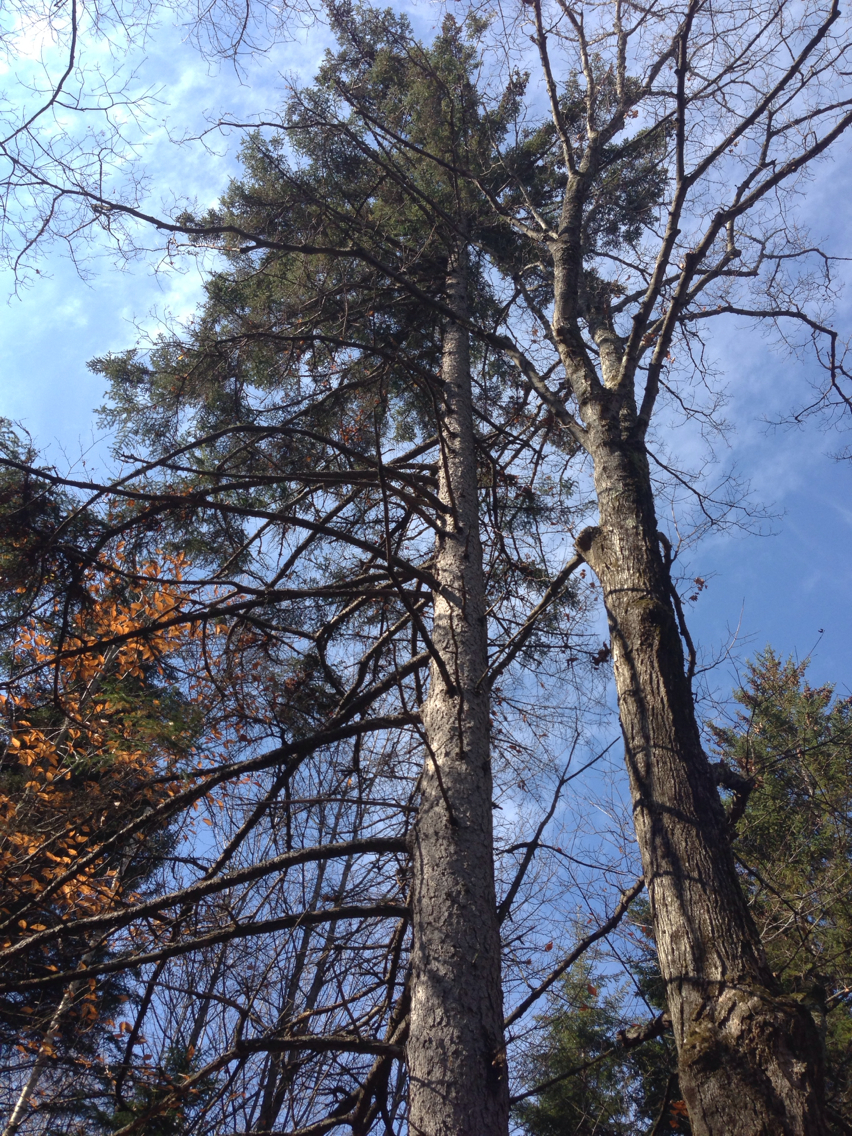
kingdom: Plantae
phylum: Tracheophyta
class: Pinopsida
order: Pinales
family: Pinaceae
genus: Picea
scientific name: Picea rubens
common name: Red spruce
